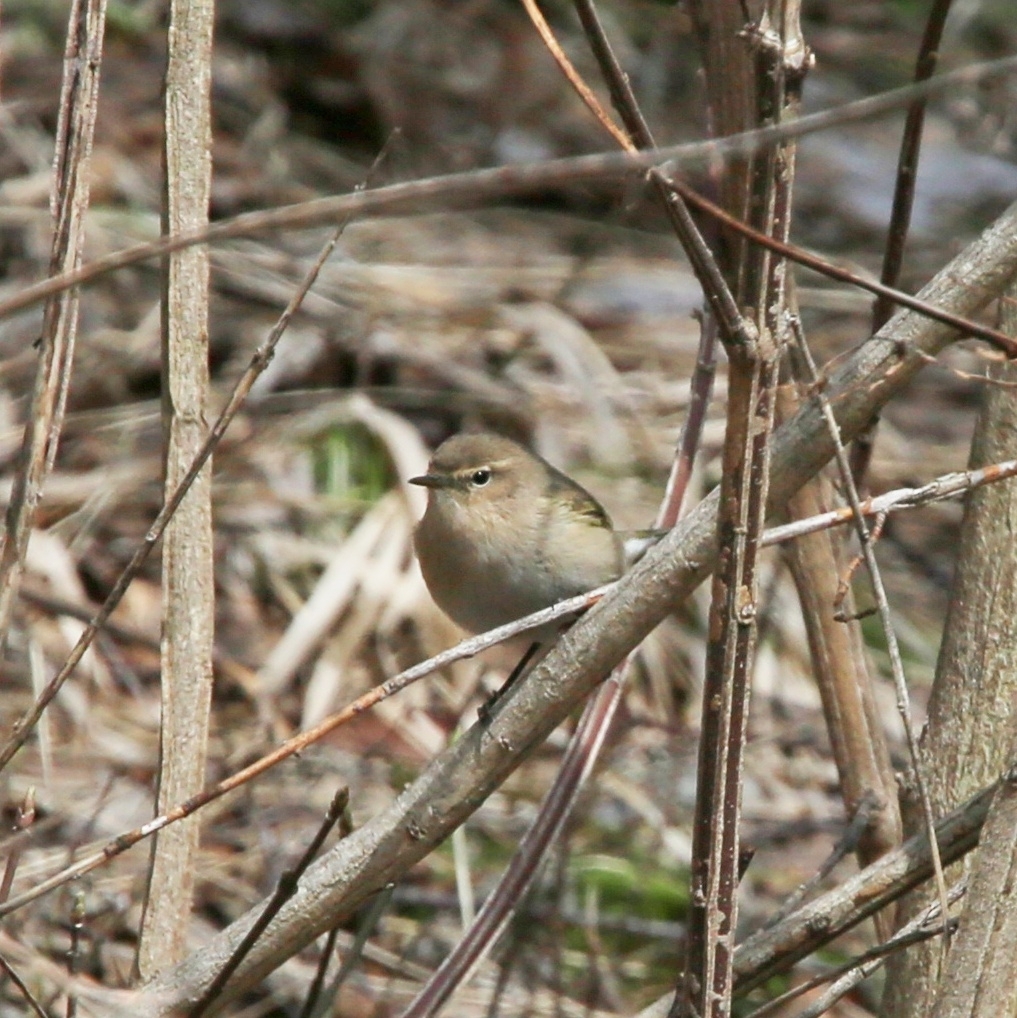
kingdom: Animalia
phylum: Chordata
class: Aves
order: Passeriformes
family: Phylloscopidae
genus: Phylloscopus
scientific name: Phylloscopus collybita
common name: Common chiffchaff
